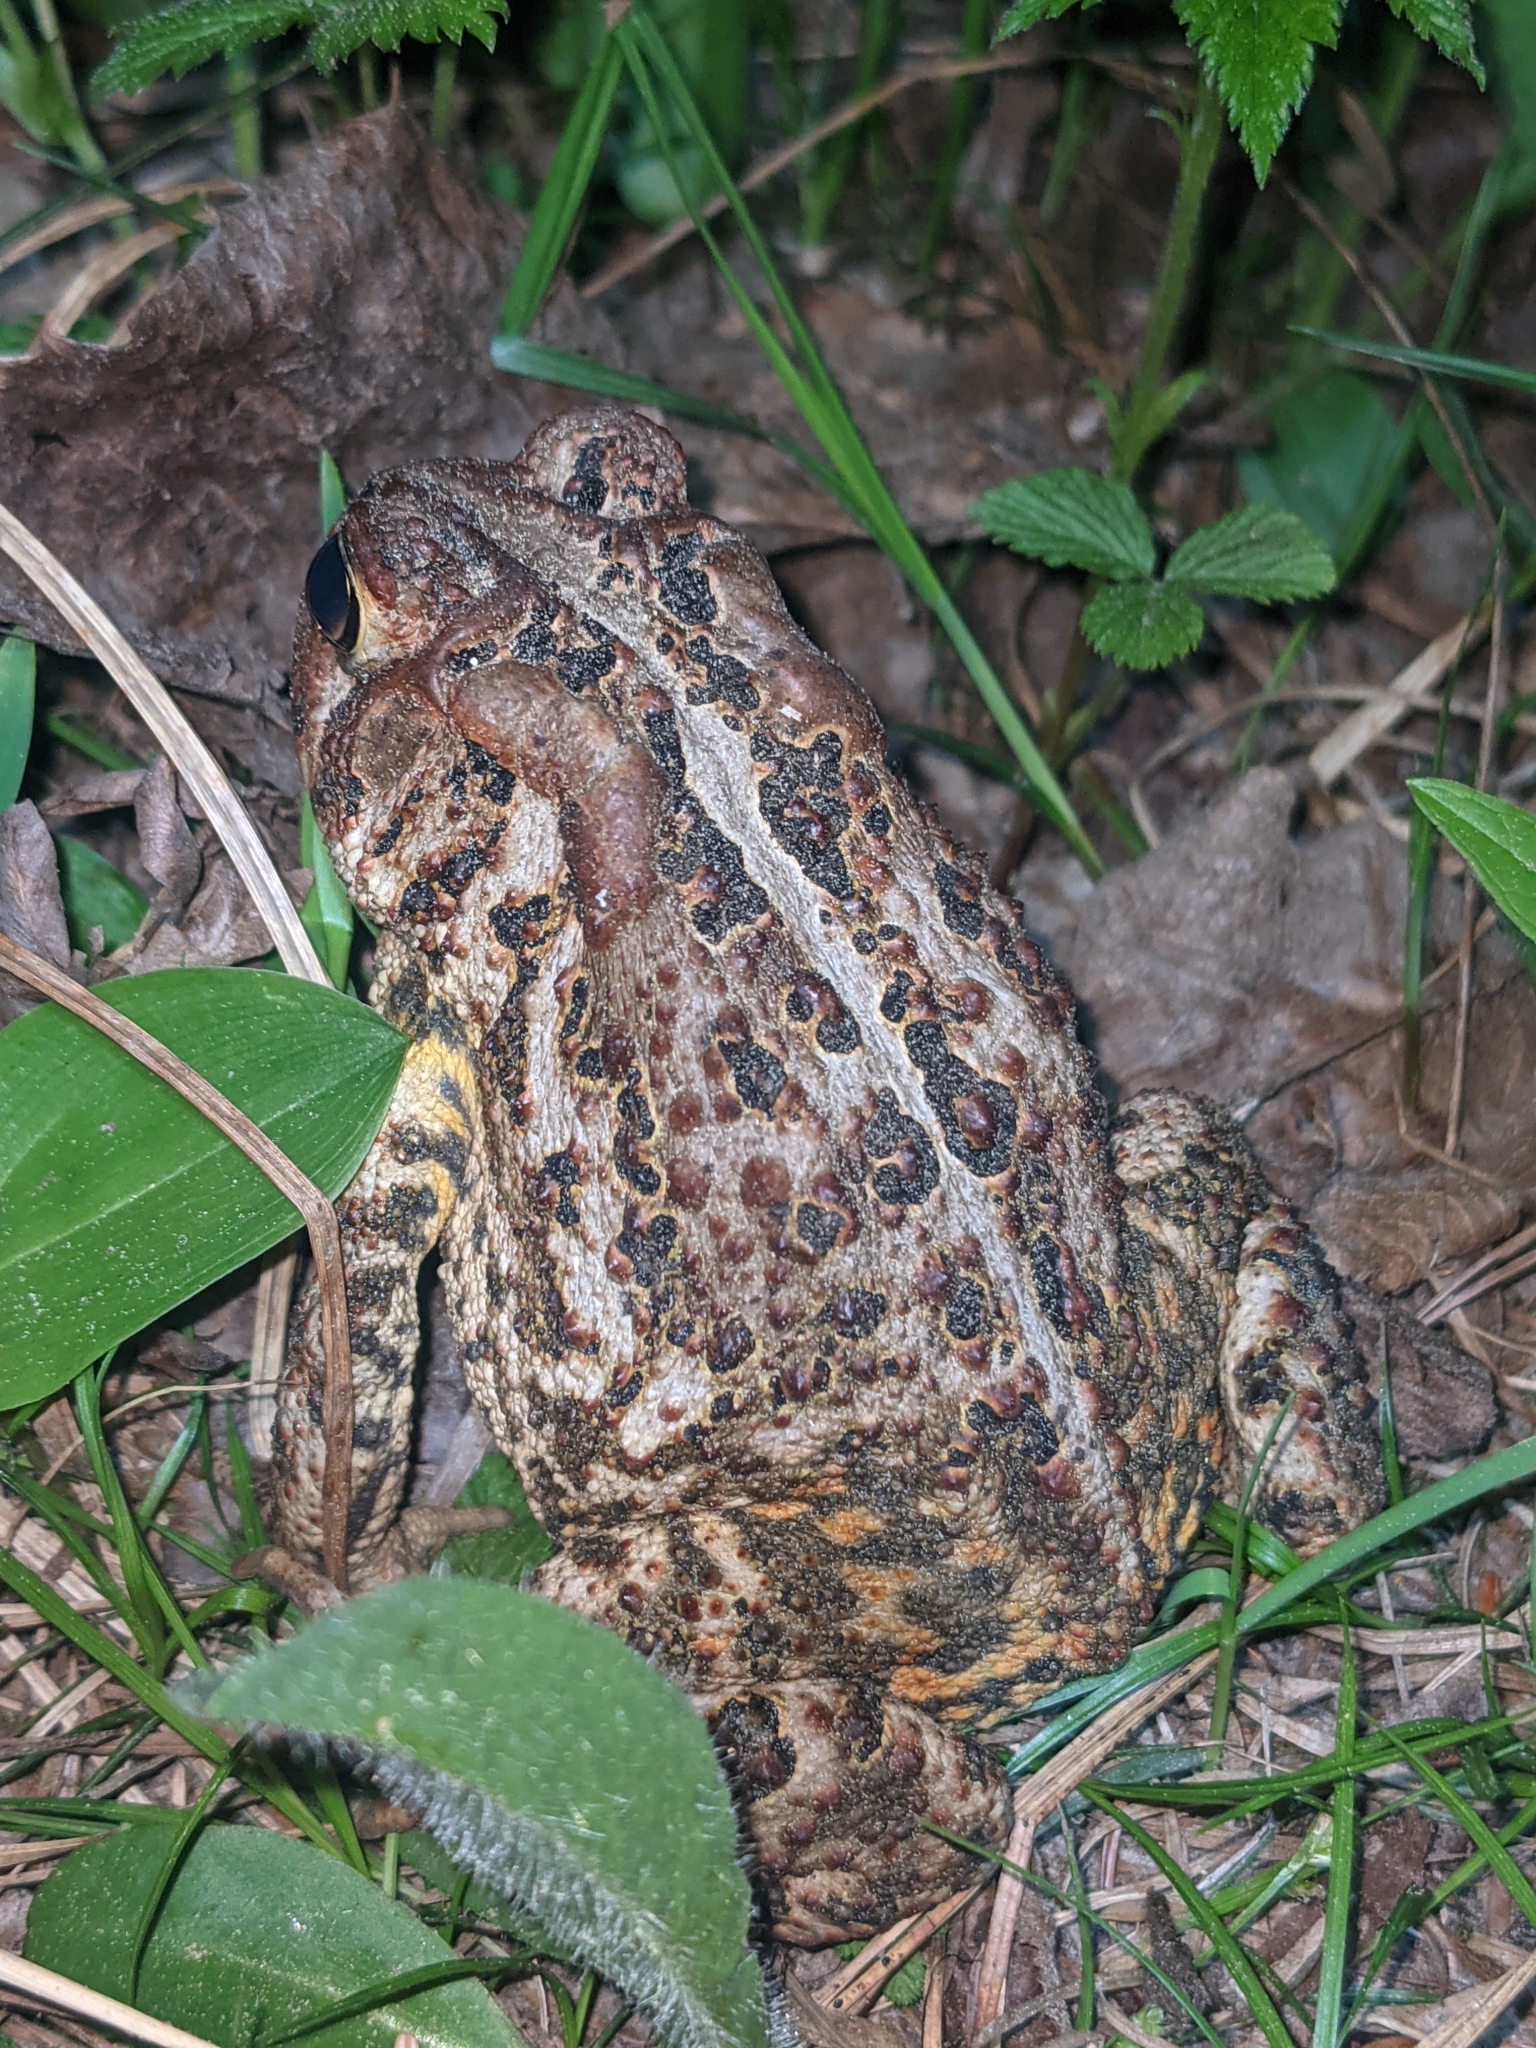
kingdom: Animalia
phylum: Chordata
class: Amphibia
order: Anura
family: Bufonidae
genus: Anaxyrus
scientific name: Anaxyrus americanus
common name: American toad
